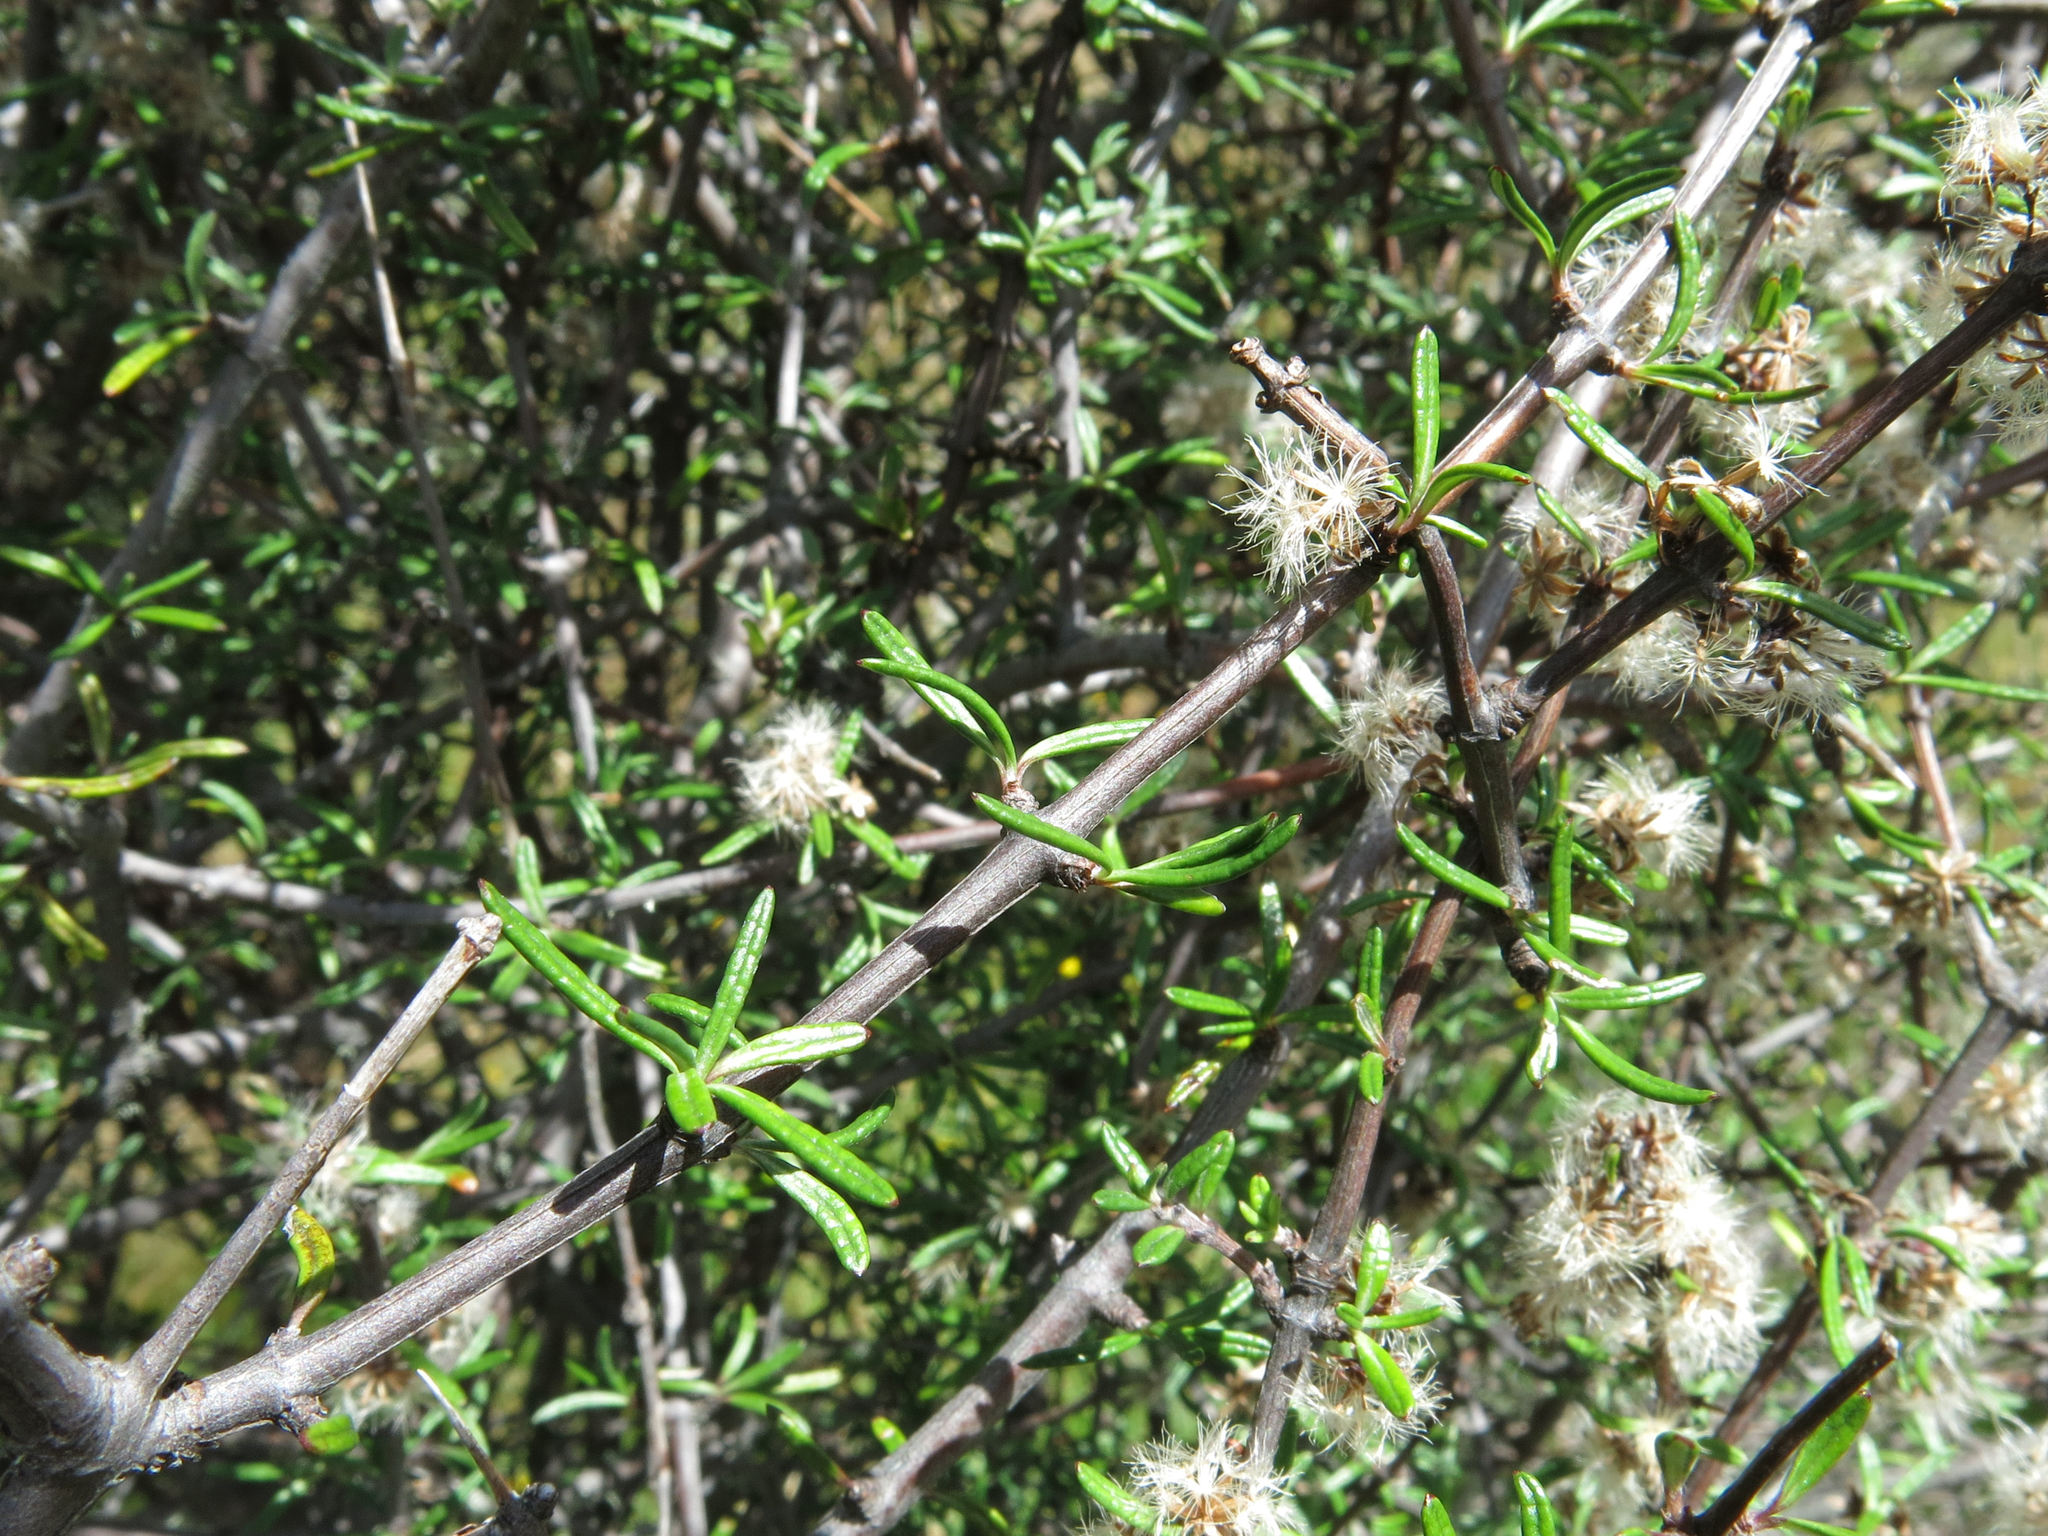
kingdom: Plantae
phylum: Tracheophyta
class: Magnoliopsida
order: Asterales
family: Asteraceae
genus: Olearia
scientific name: Olearia bullata
